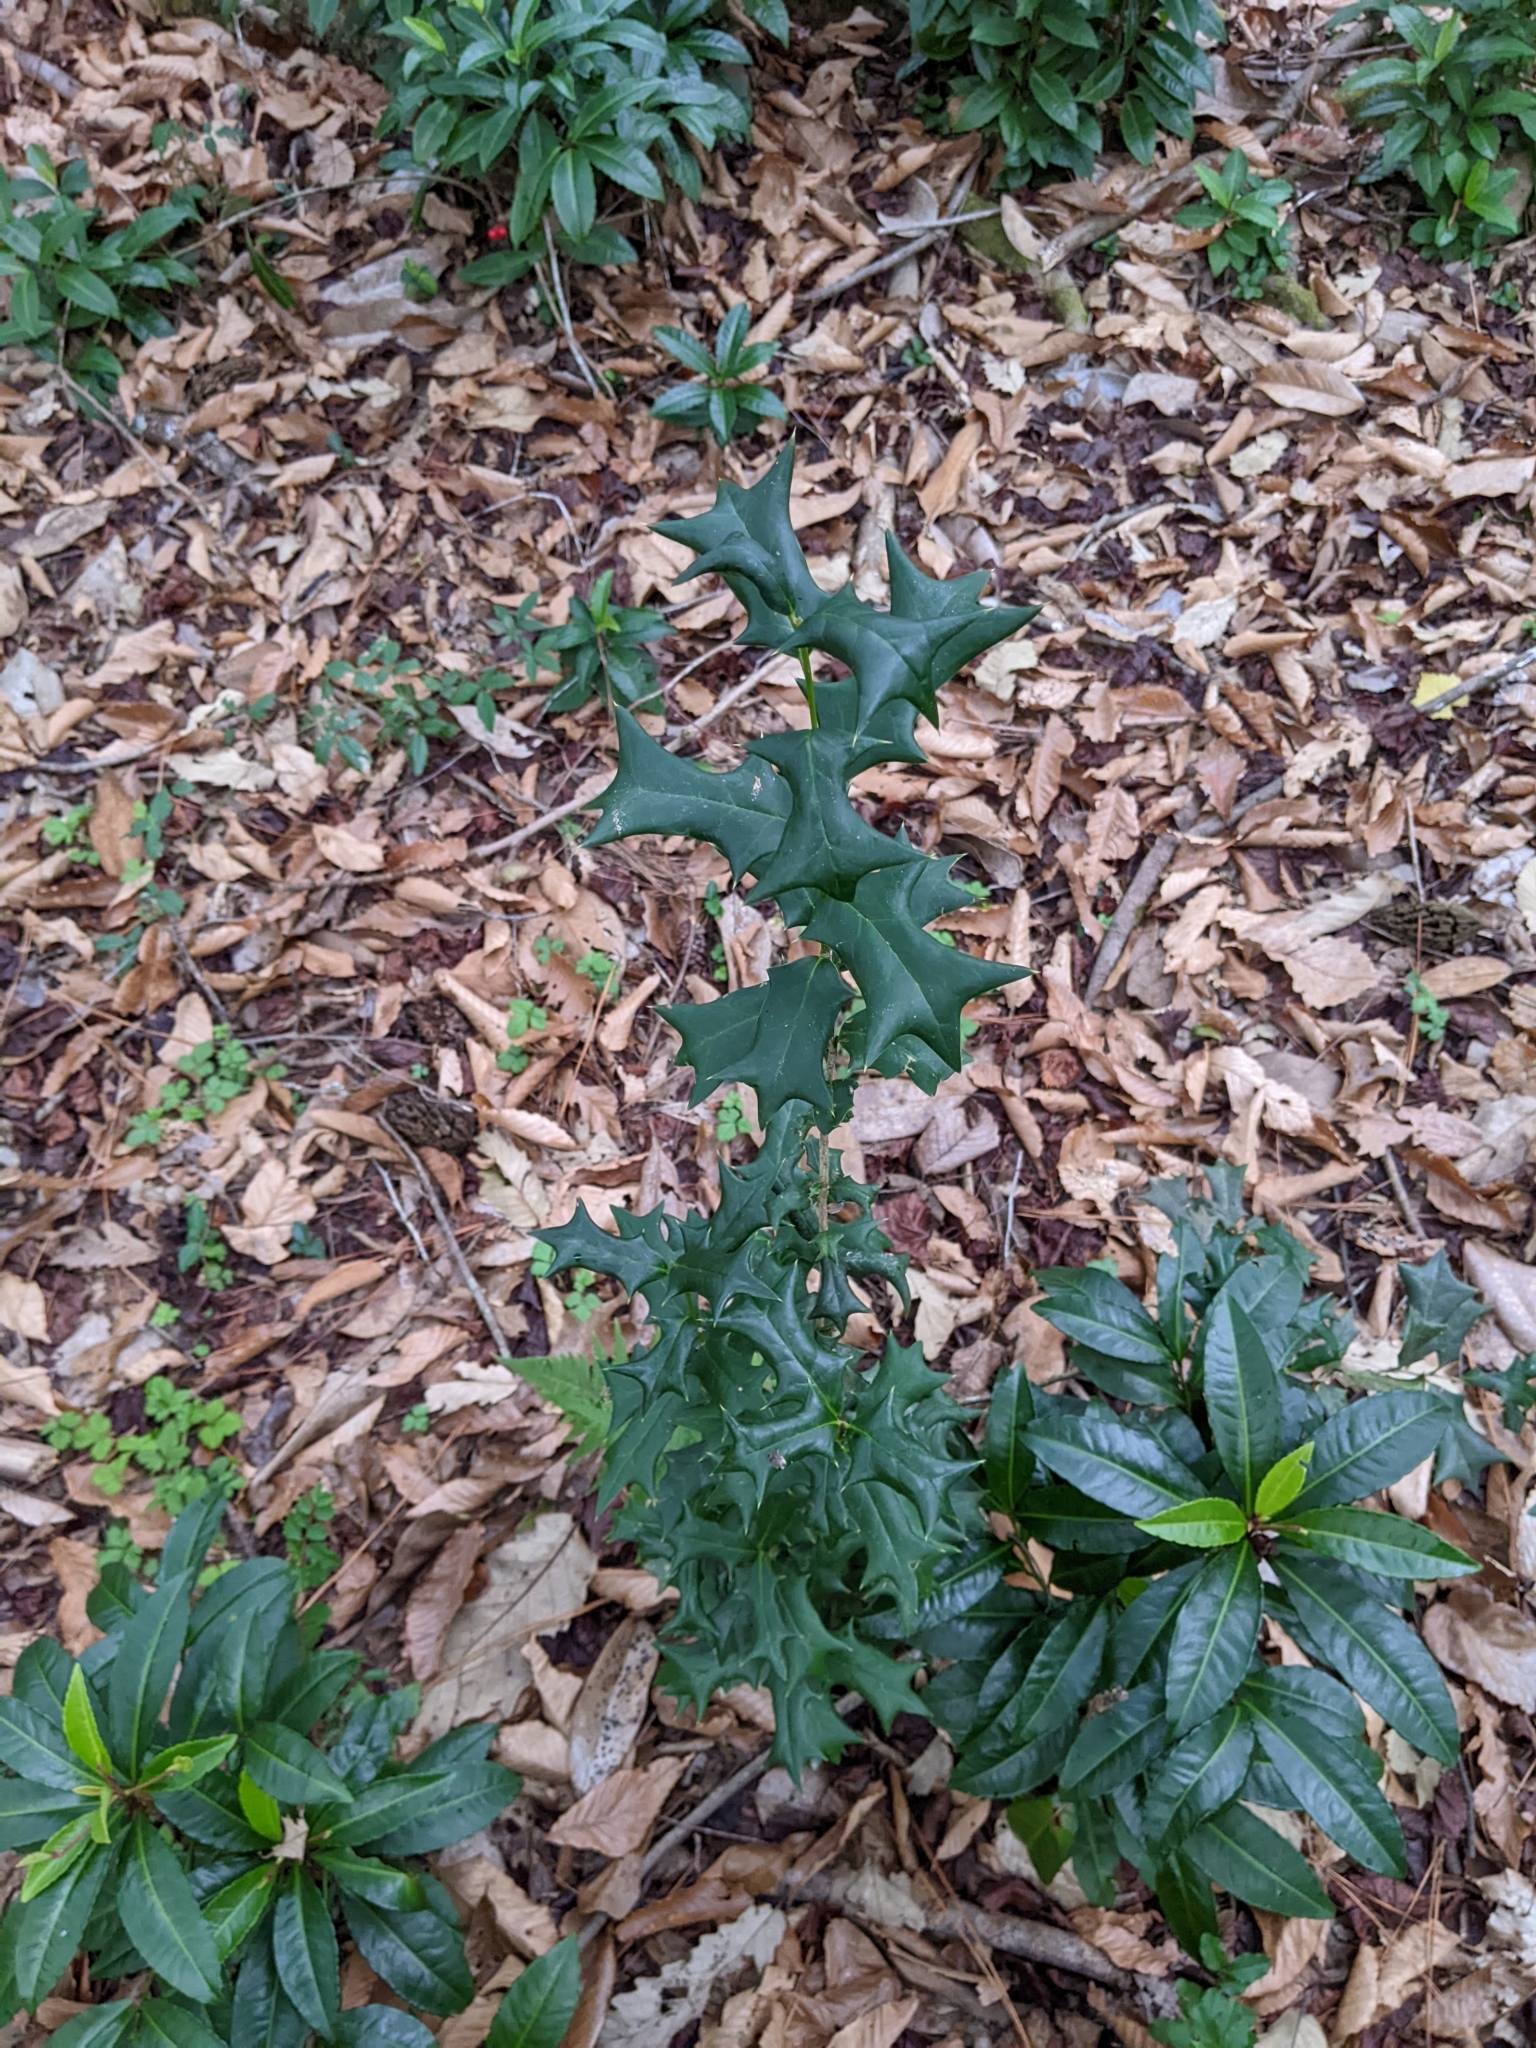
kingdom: Plantae
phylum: Tracheophyta
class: Magnoliopsida
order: Aquifoliales
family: Aquifoliaceae
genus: Ilex
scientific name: Ilex cornuta
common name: Chinese holly
